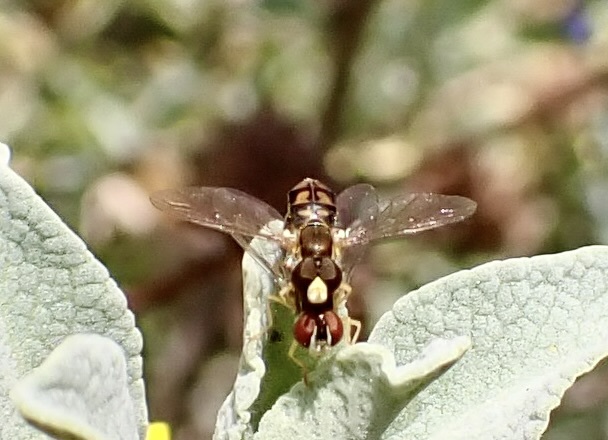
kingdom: Animalia
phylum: Arthropoda
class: Insecta
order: Diptera
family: Syrphidae
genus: Toxomerus
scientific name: Toxomerus marginatus
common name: Syrphid fly
